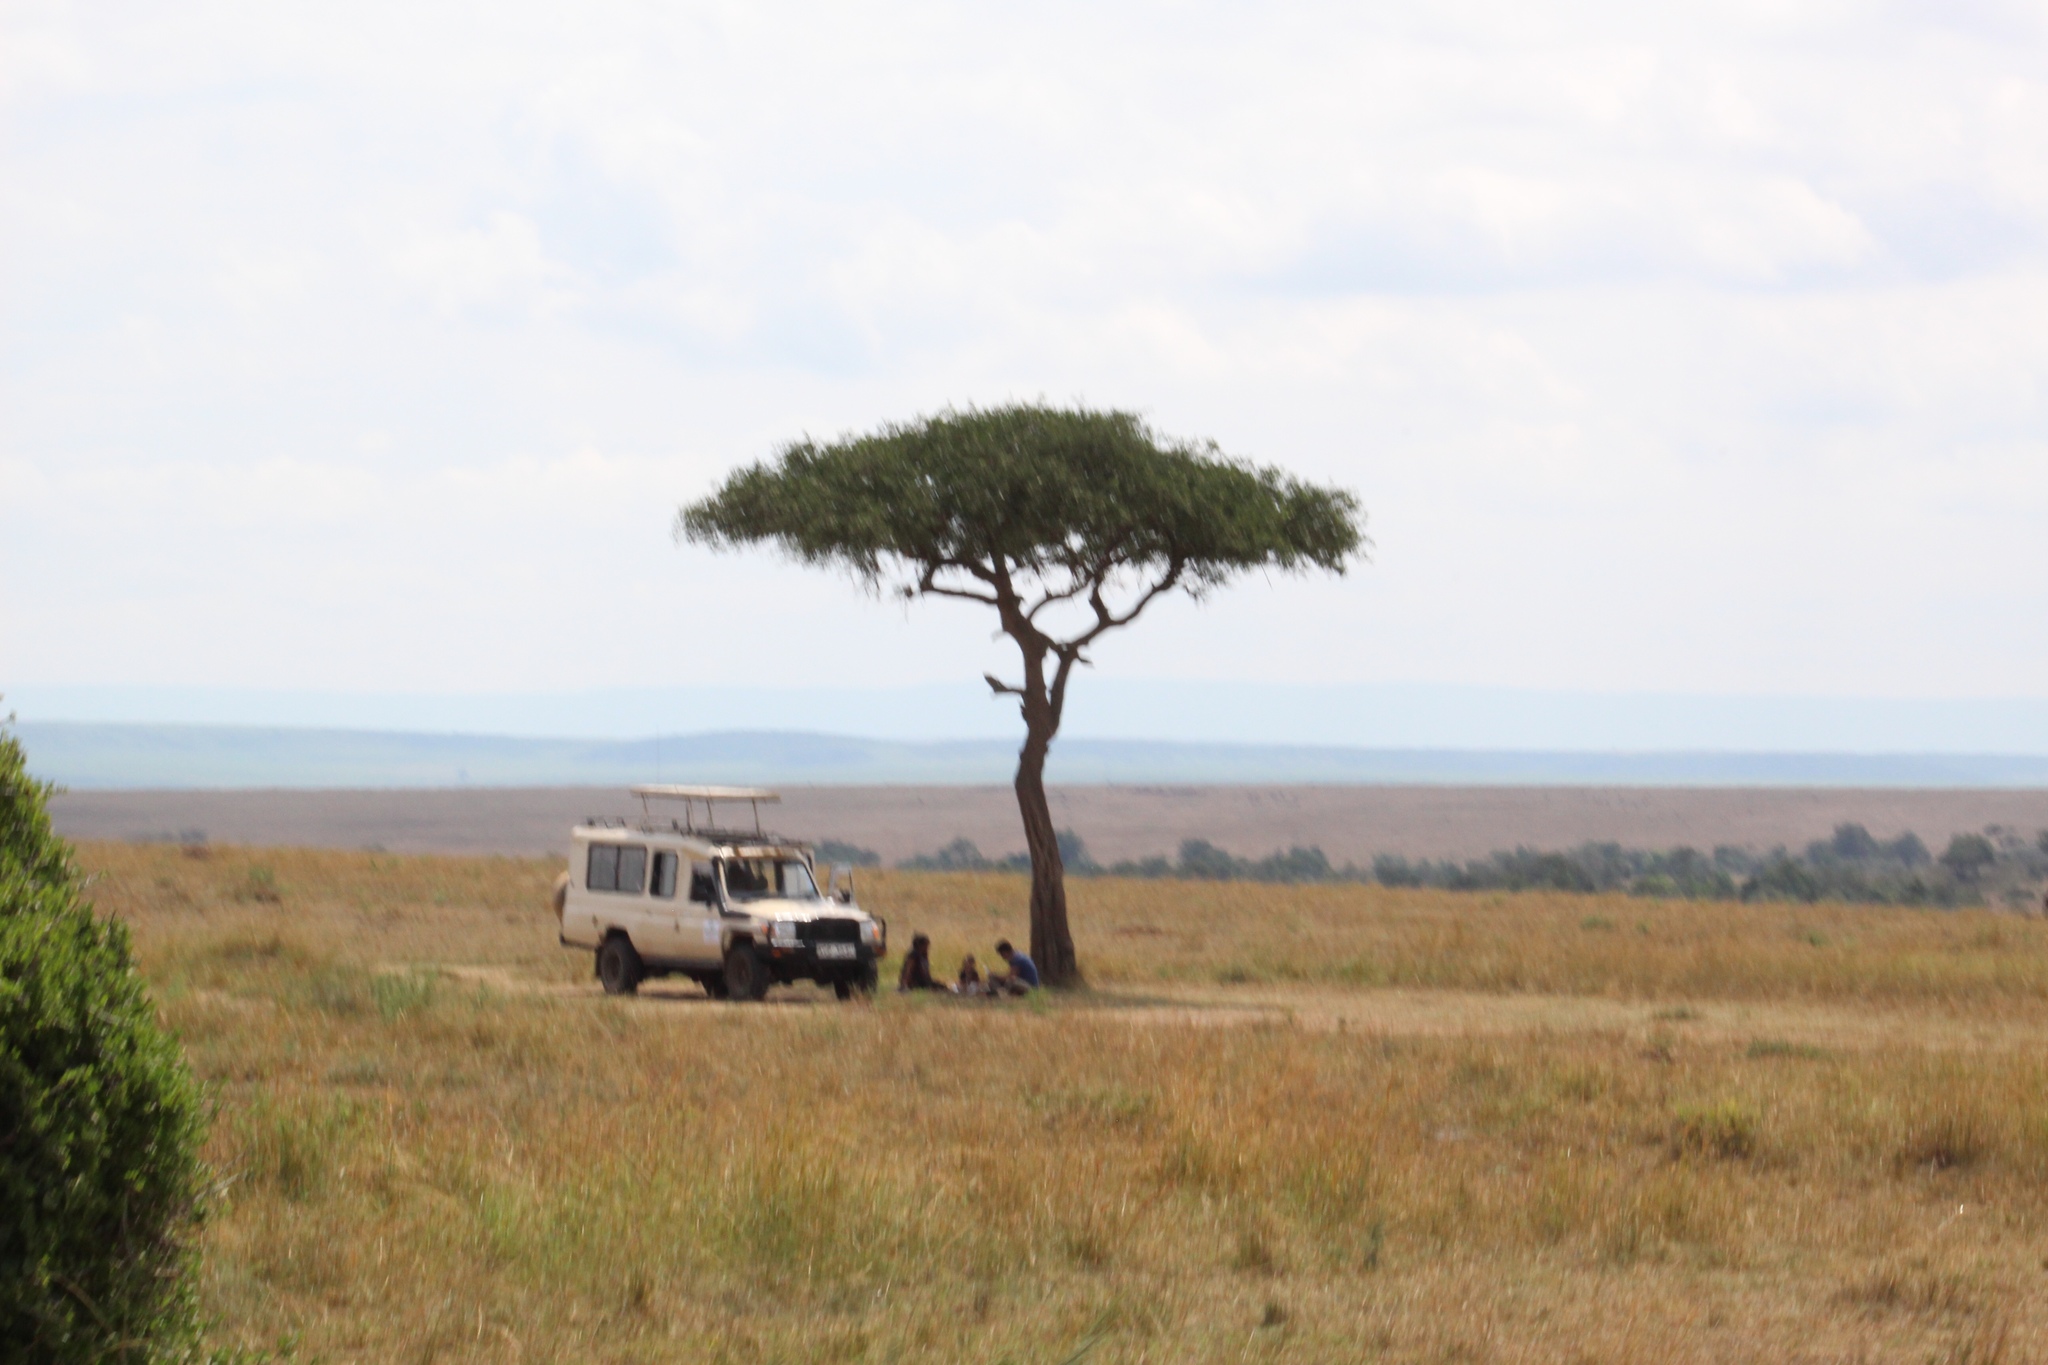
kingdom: Plantae
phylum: Tracheophyta
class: Magnoliopsida
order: Zygophyllales
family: Zygophyllaceae
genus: Balanites
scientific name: Balanites aegyptiaca
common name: Balanites
